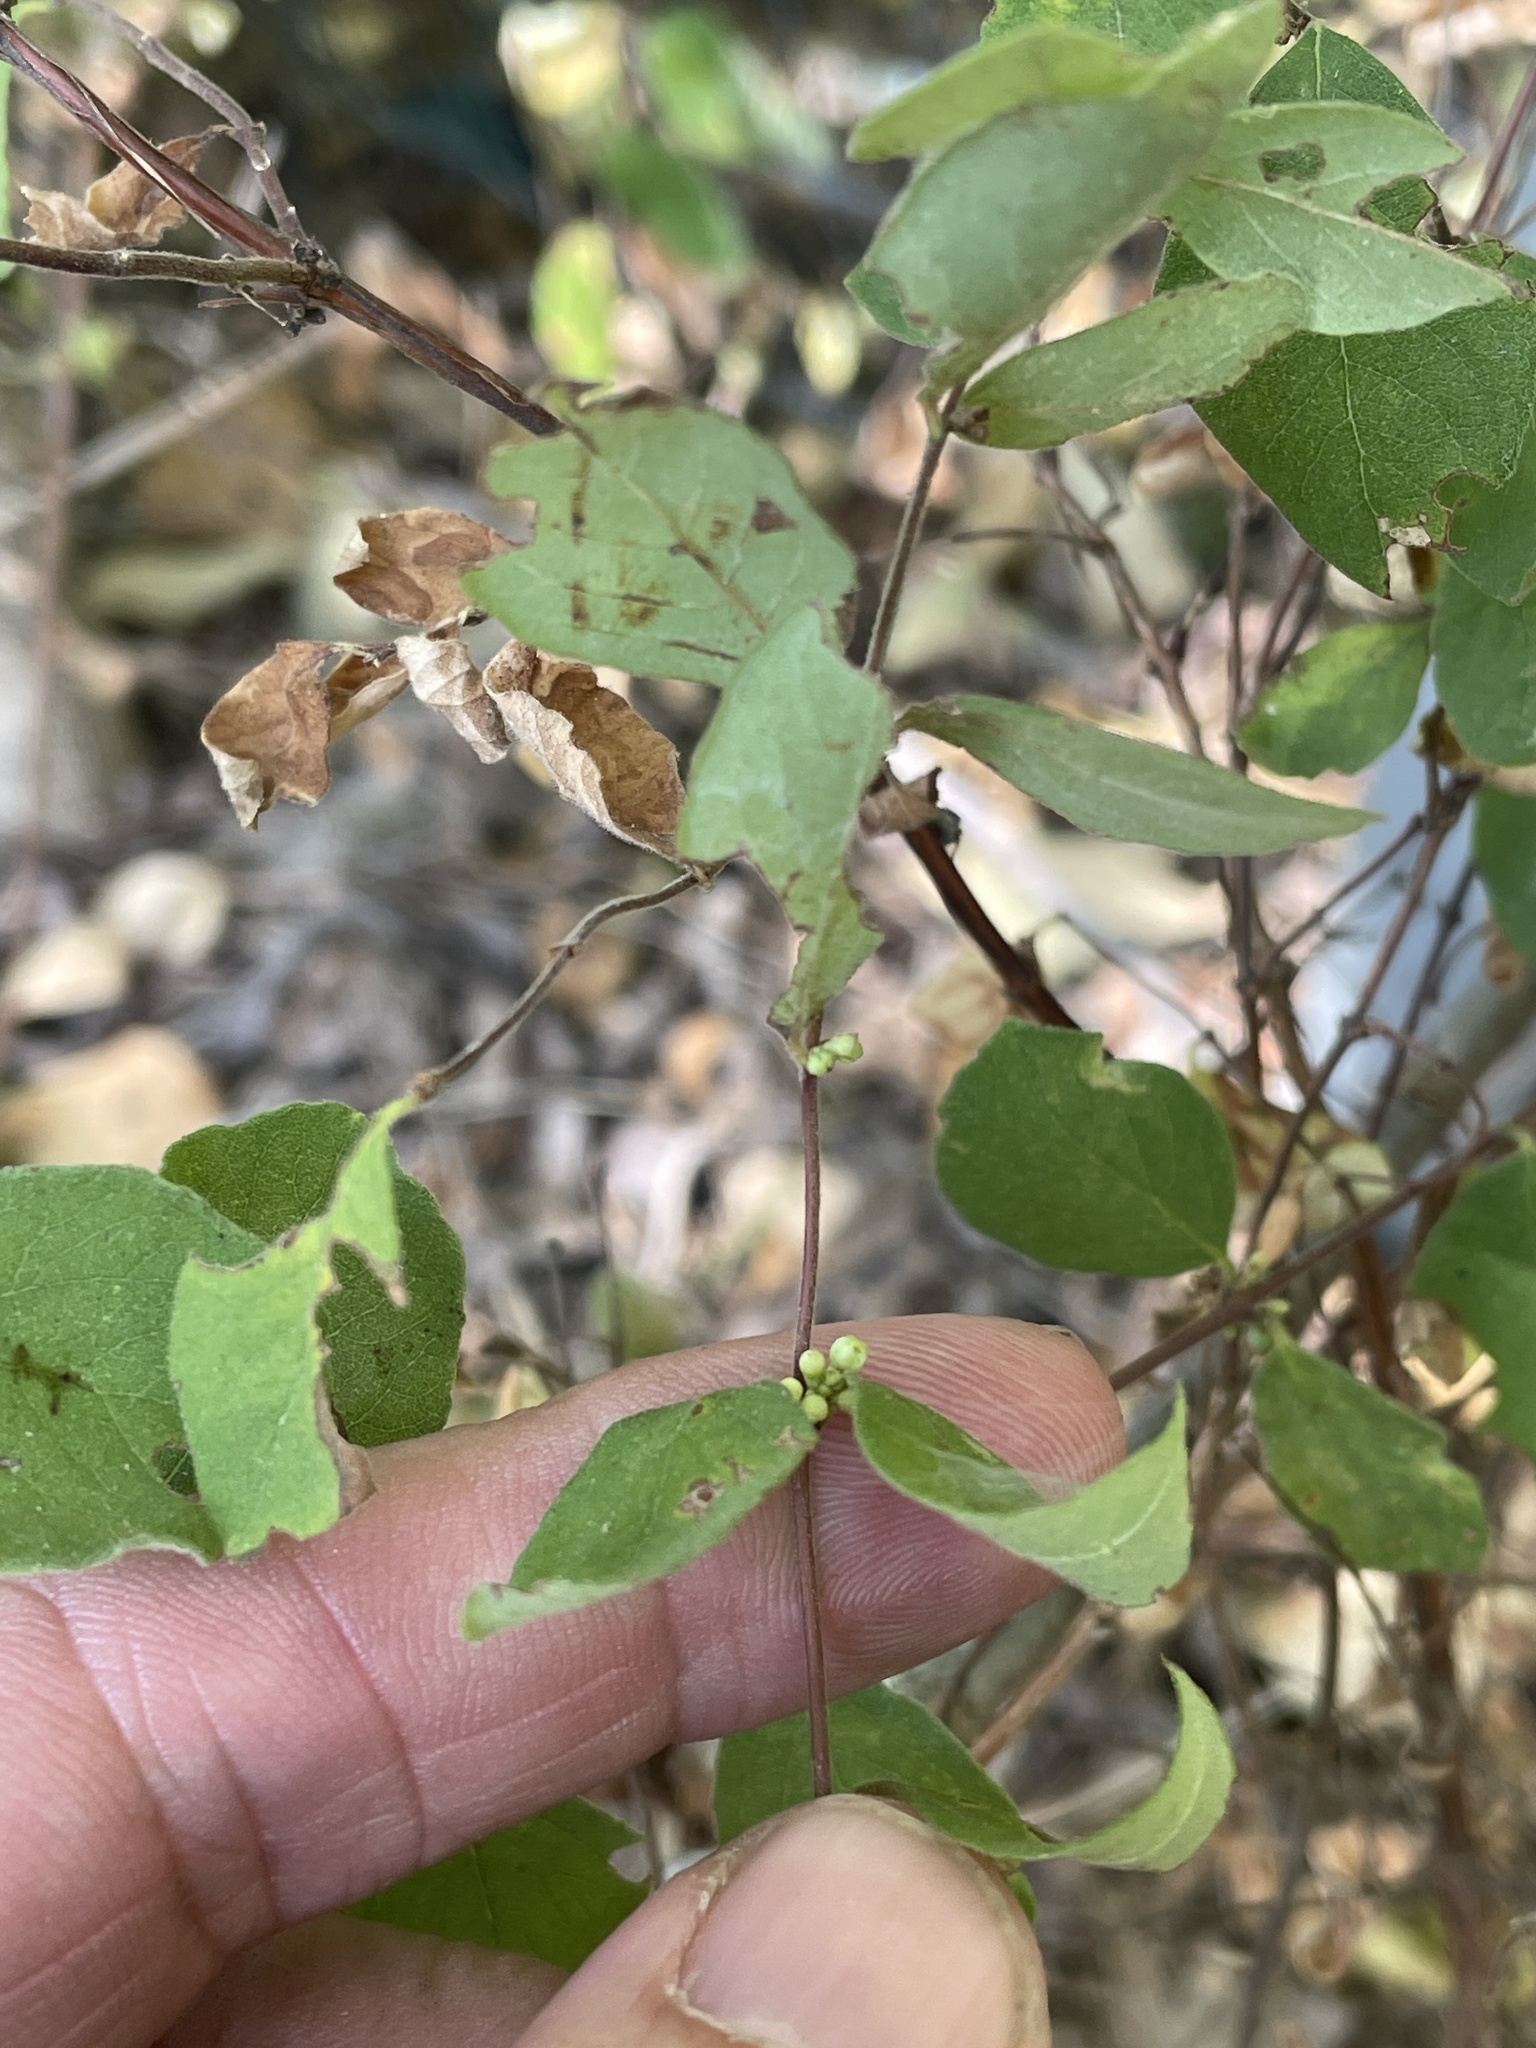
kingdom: Plantae
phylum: Tracheophyta
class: Magnoliopsida
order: Dipsacales
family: Caprifoliaceae
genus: Symphoricarpos
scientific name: Symphoricarpos orbiculatus
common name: Coralberry
